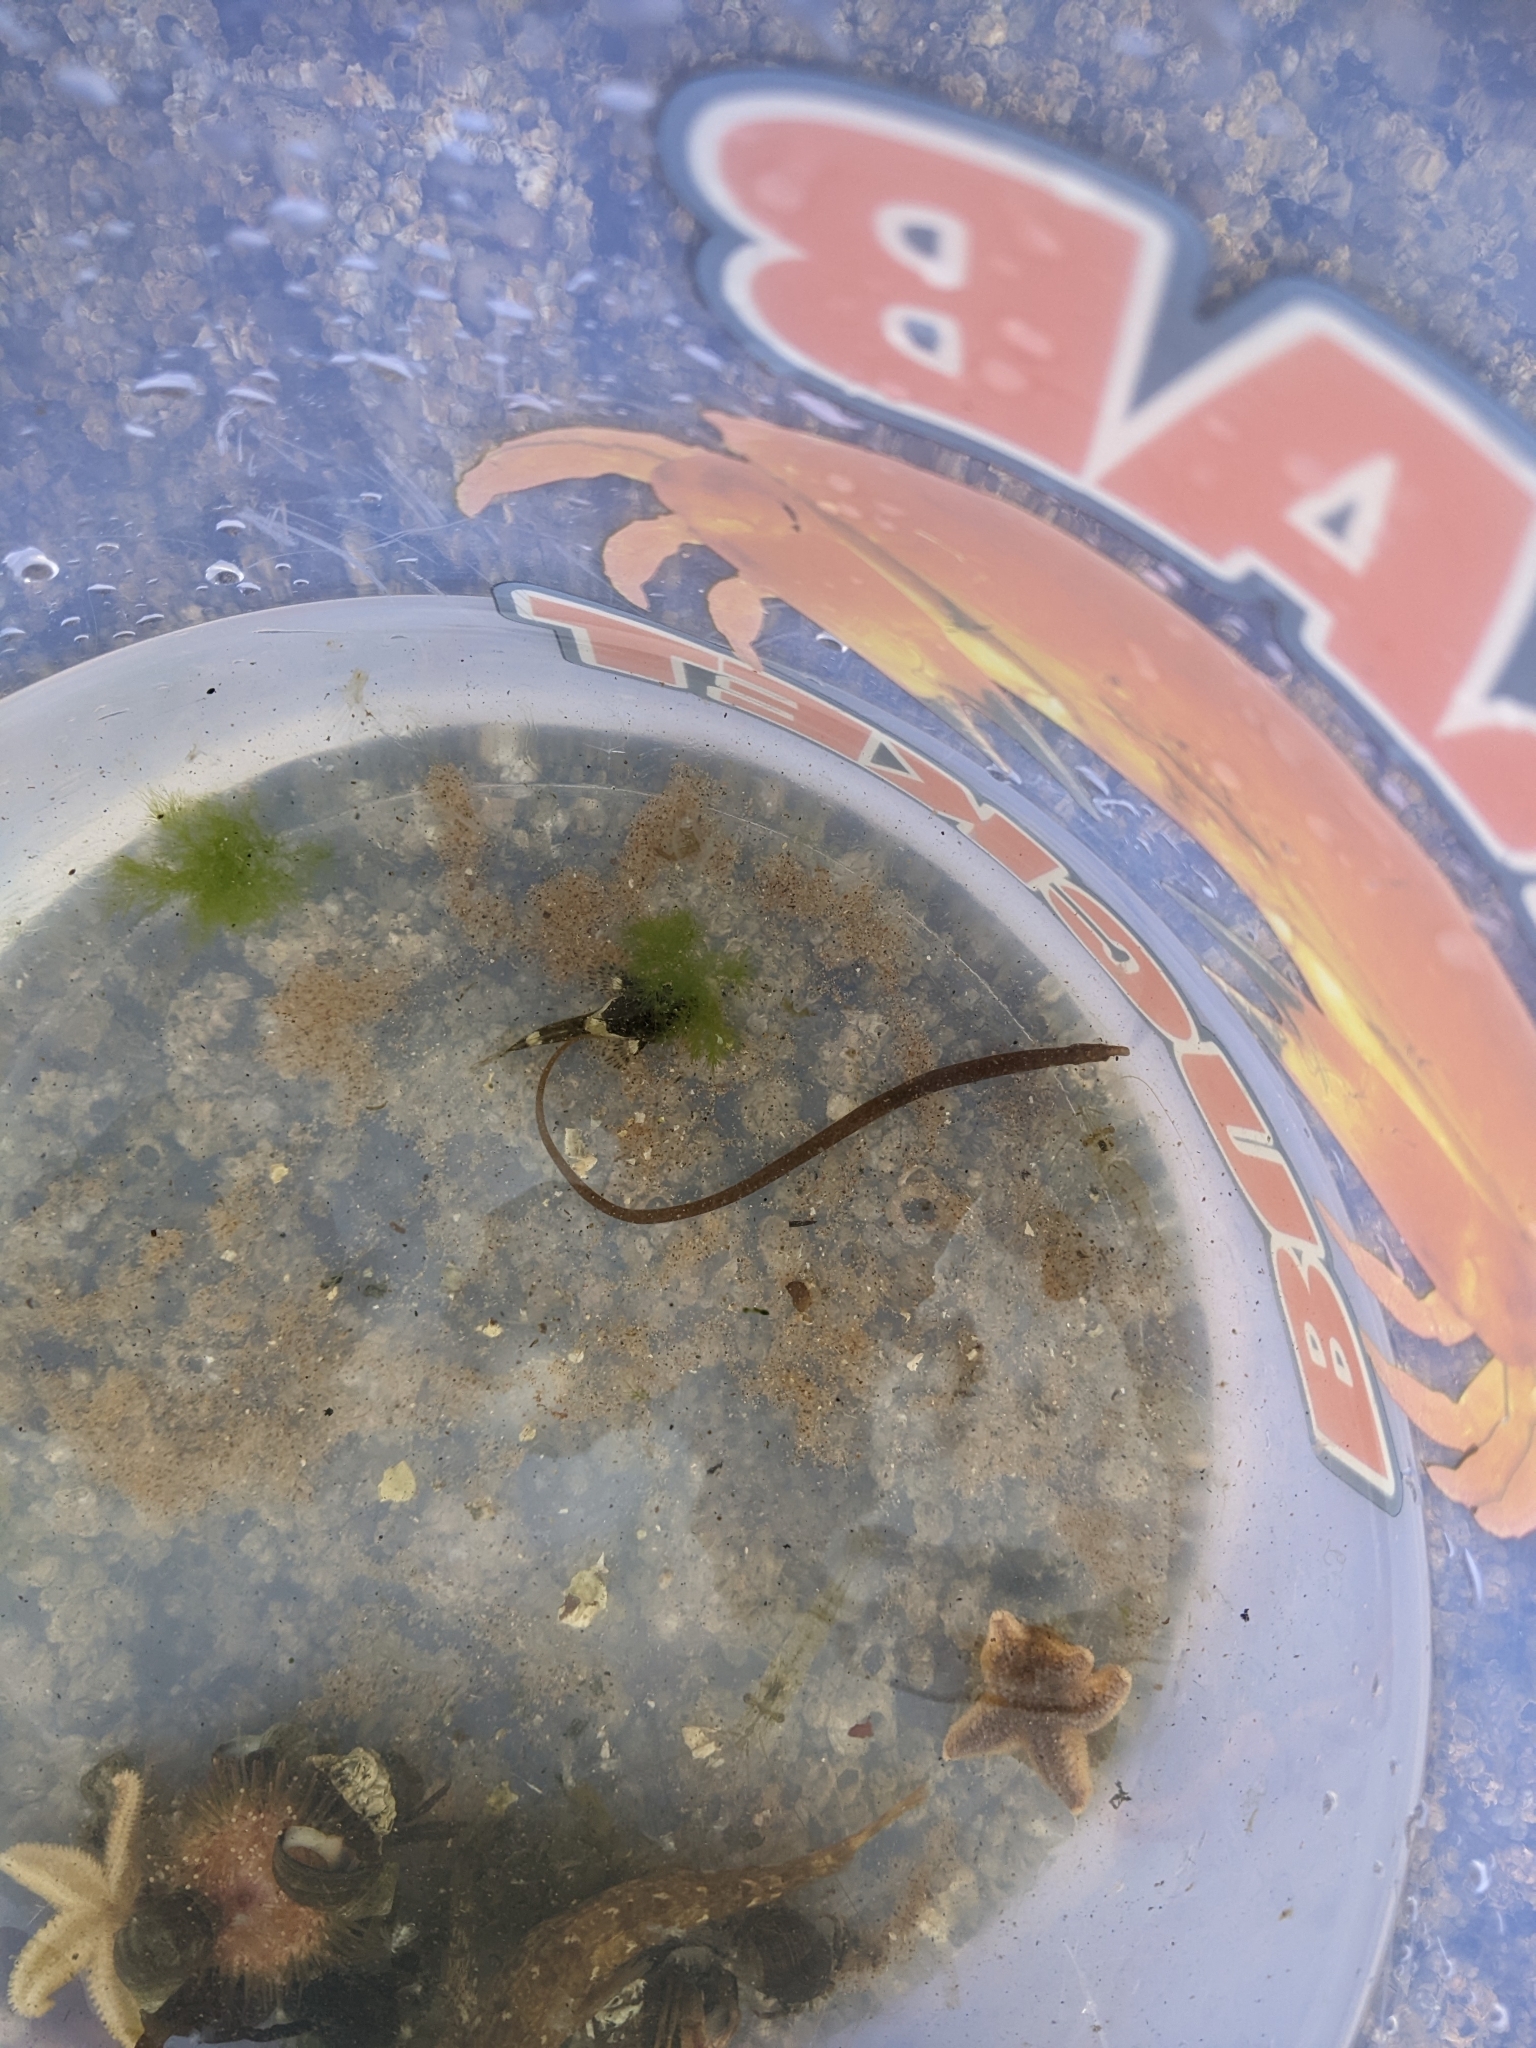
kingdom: Animalia
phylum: Chordata
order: Syngnathiformes
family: Syngnathidae
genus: Nerophis
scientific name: Nerophis lumbriciformis
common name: Worm pipefish
